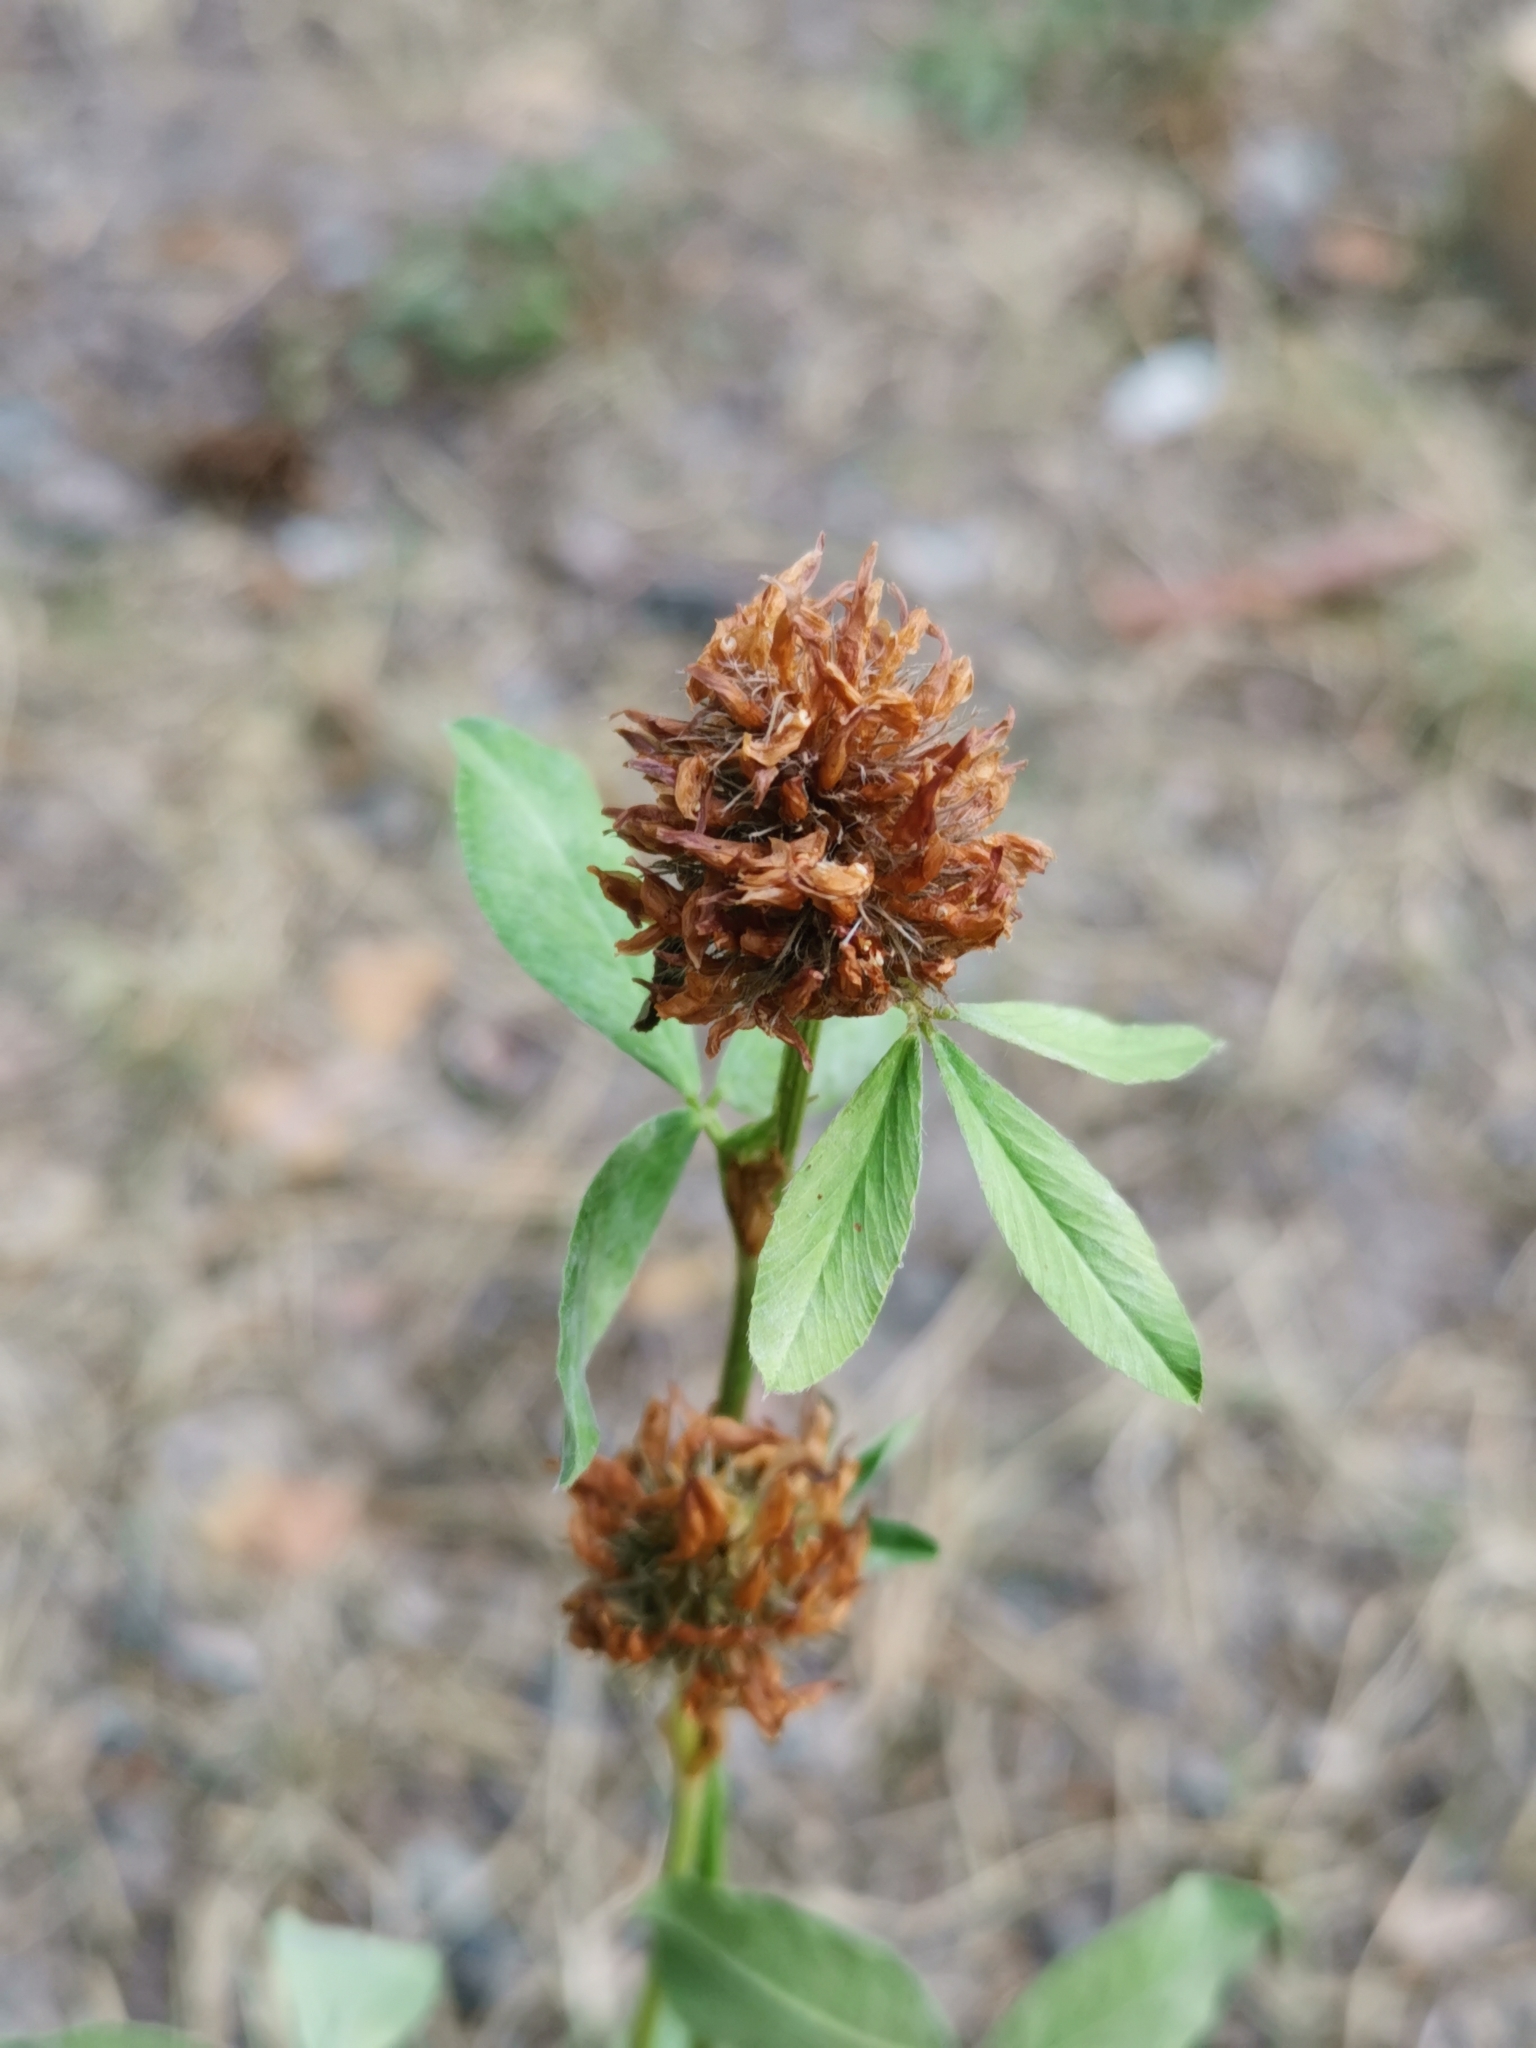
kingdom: Plantae
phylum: Tracheophyta
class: Magnoliopsida
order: Fabales
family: Fabaceae
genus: Trifolium
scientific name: Trifolium pratense
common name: Red clover
